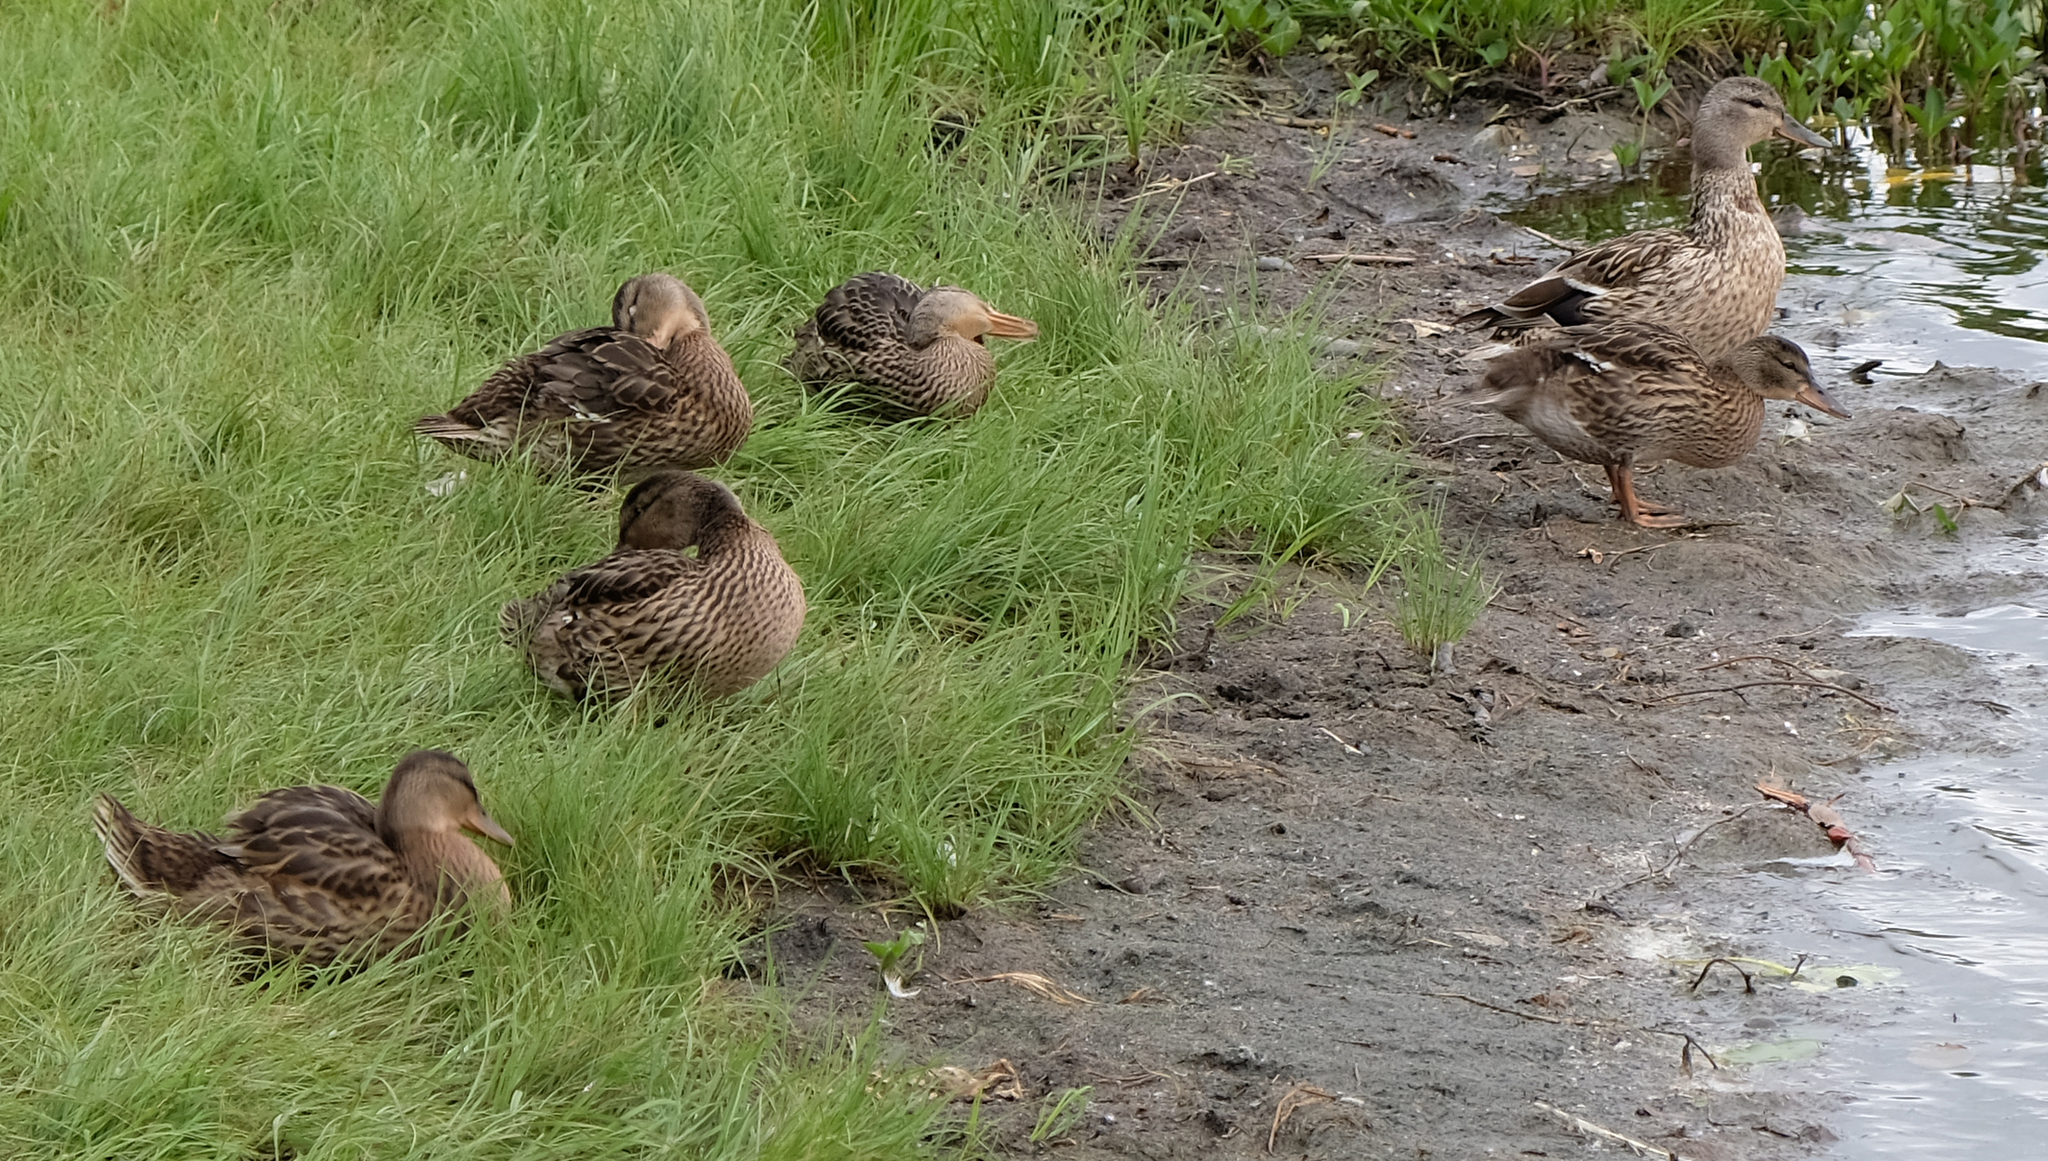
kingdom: Animalia
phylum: Chordata
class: Aves
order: Anseriformes
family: Anatidae
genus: Anas
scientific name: Anas platyrhynchos
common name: Mallard
